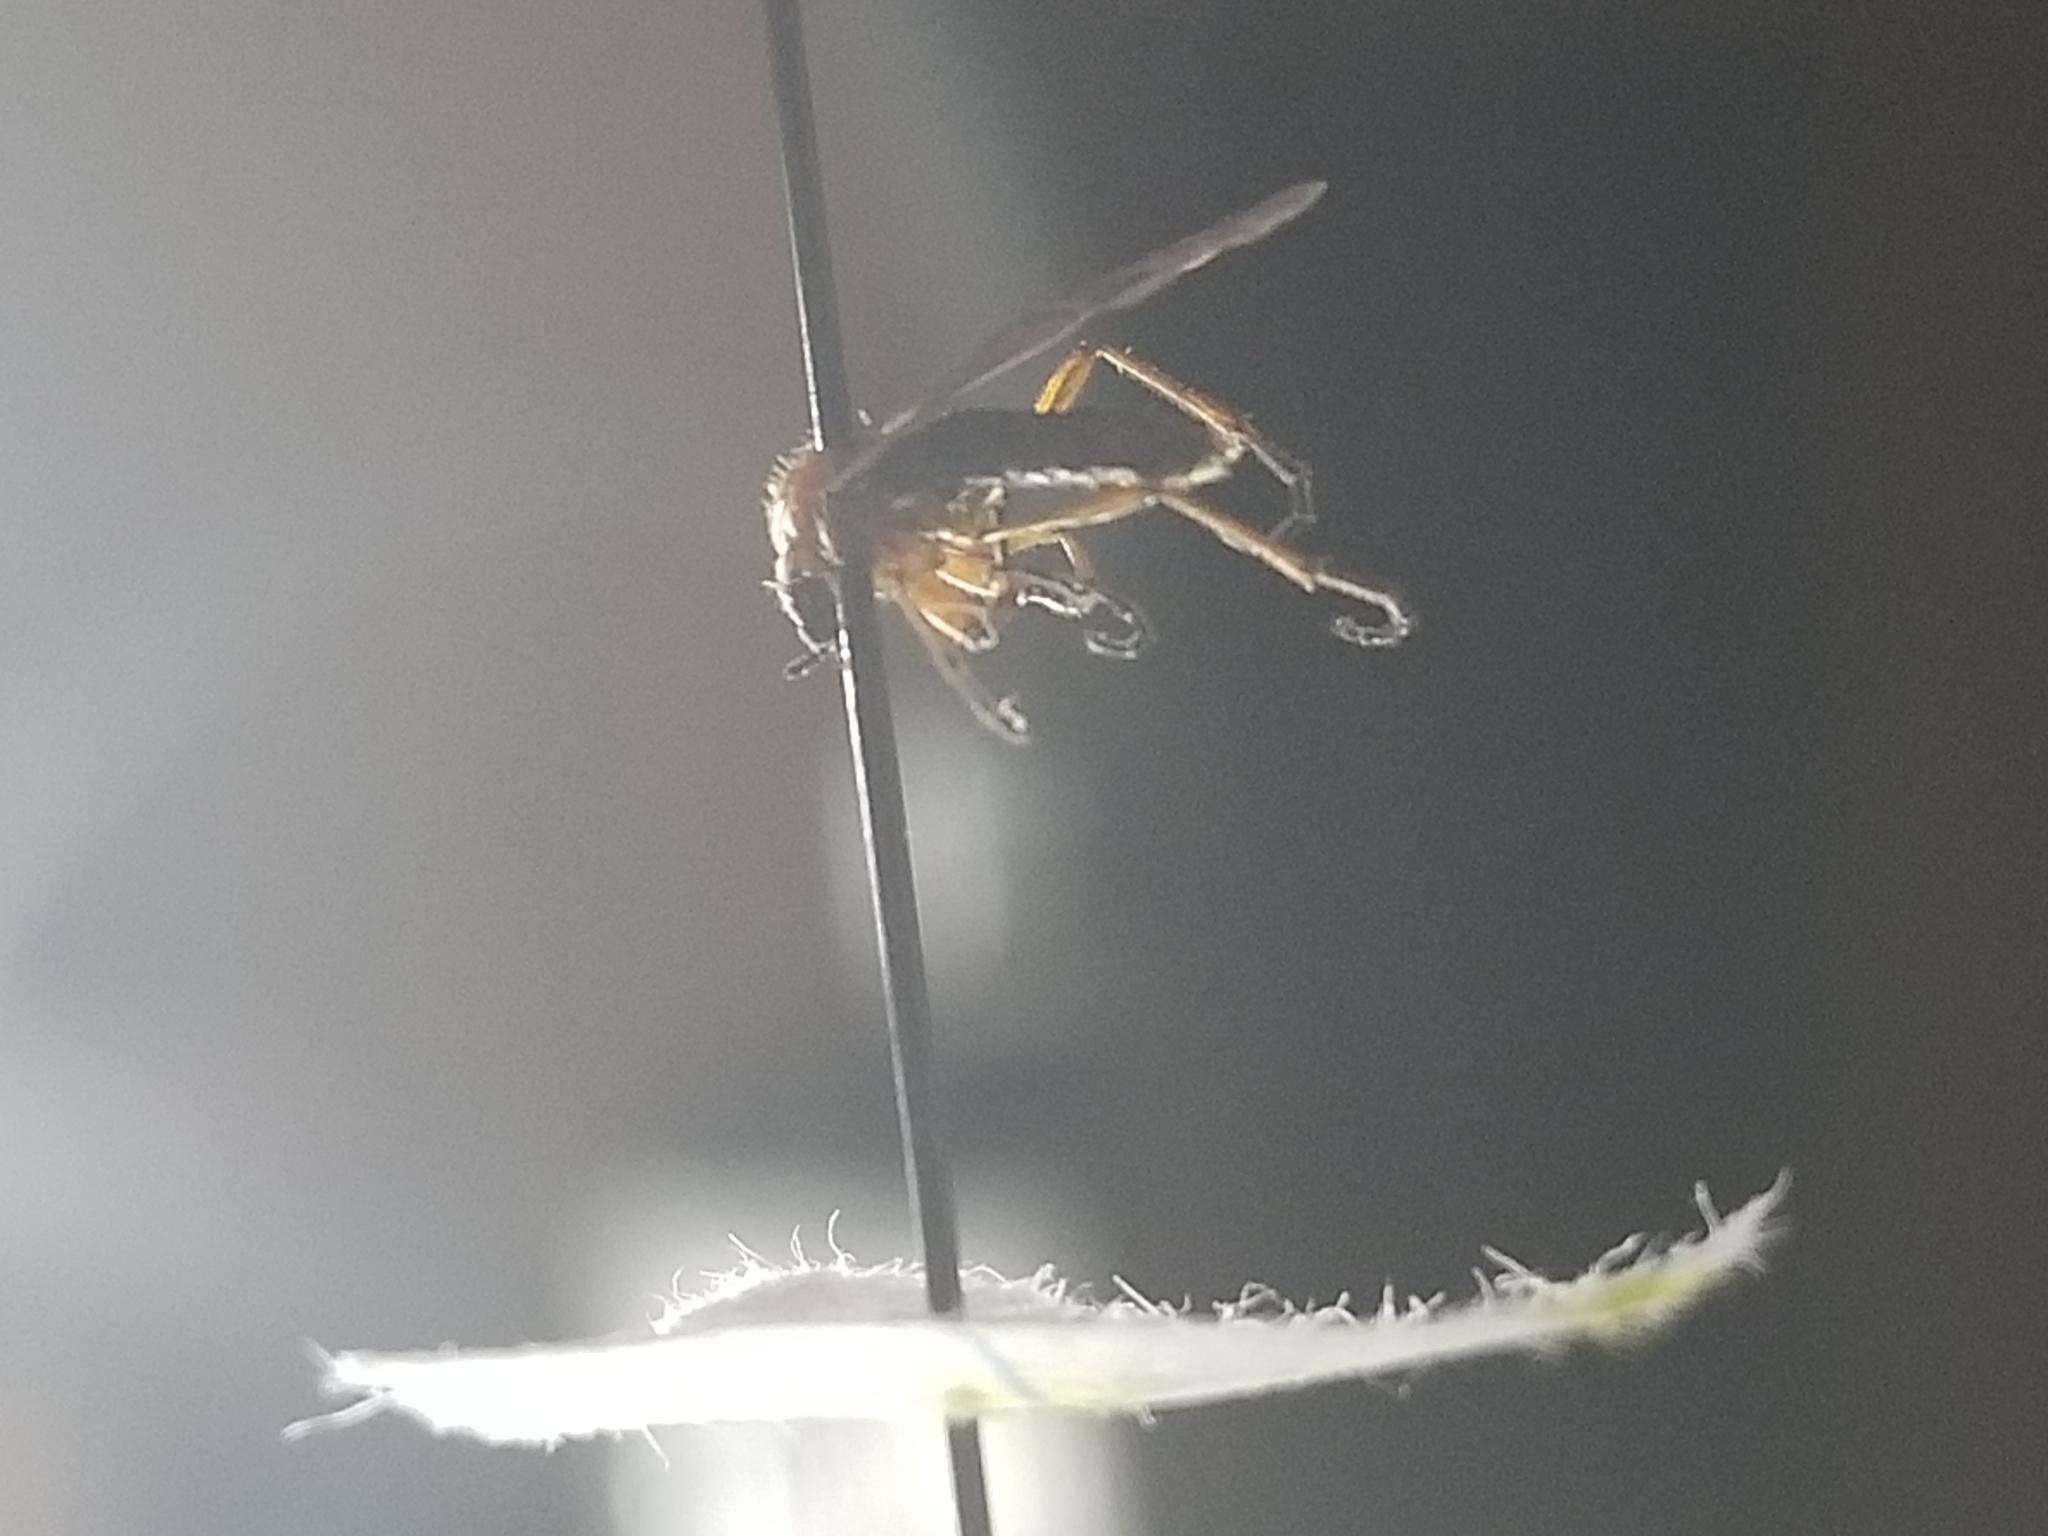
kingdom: Animalia
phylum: Arthropoda
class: Insecta
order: Diptera
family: Bibionidae
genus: Bibio
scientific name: Bibio longipes
